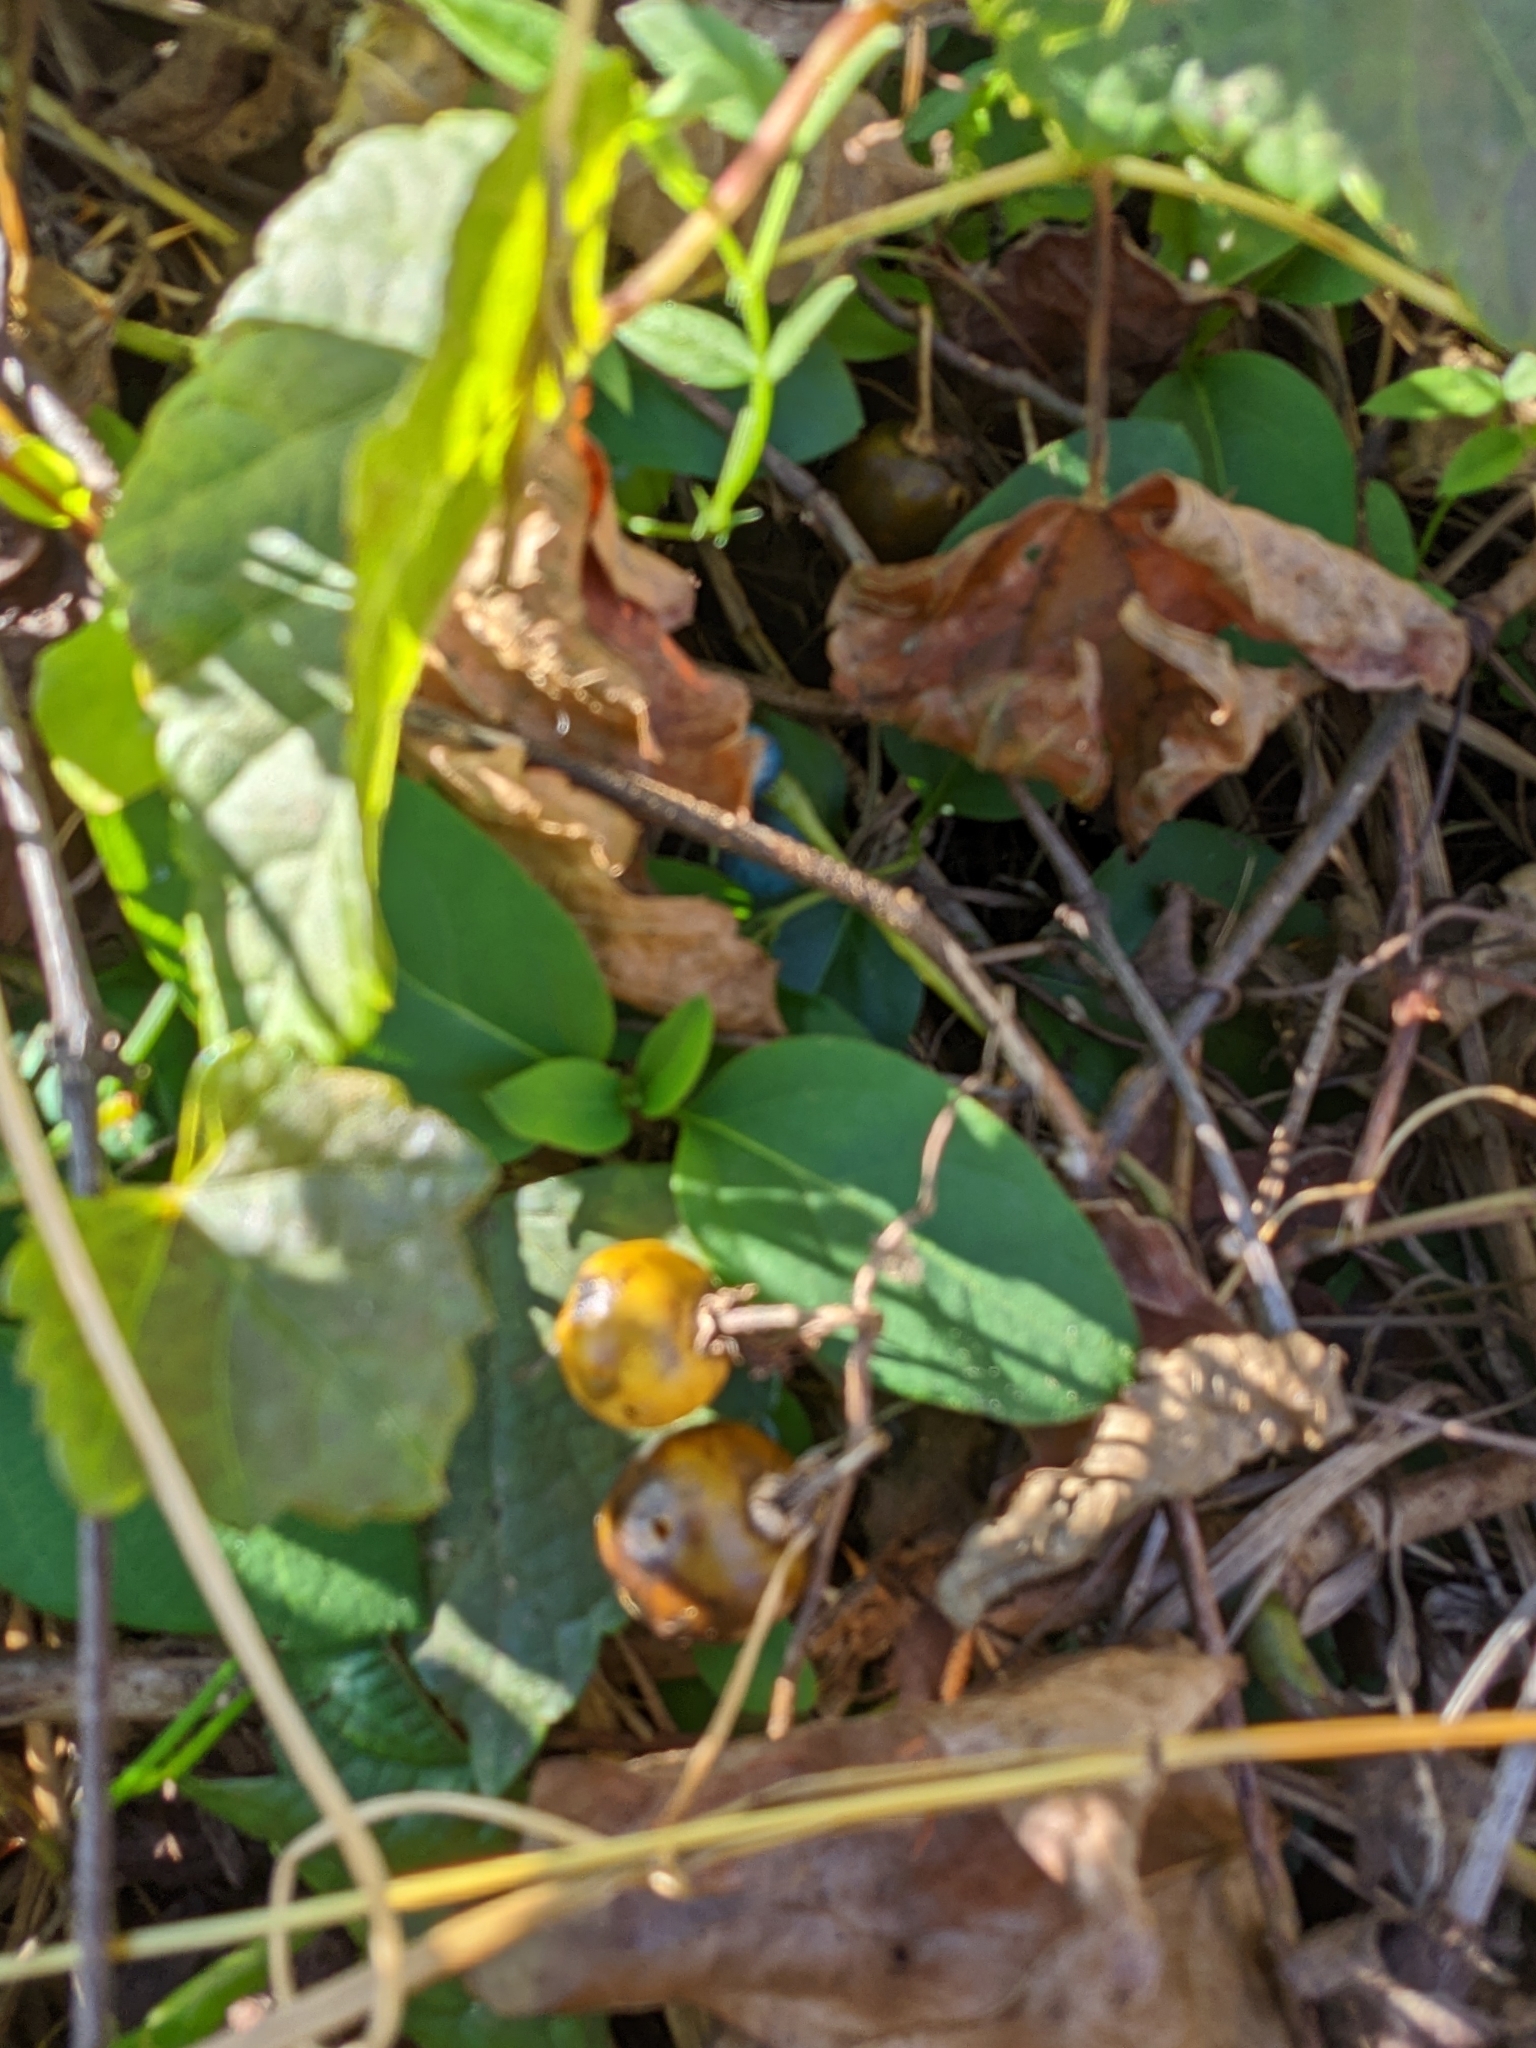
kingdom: Plantae
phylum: Tracheophyta
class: Magnoliopsida
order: Solanales
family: Solanaceae
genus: Solanum
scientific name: Solanum carolinense
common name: Horse-nettle
